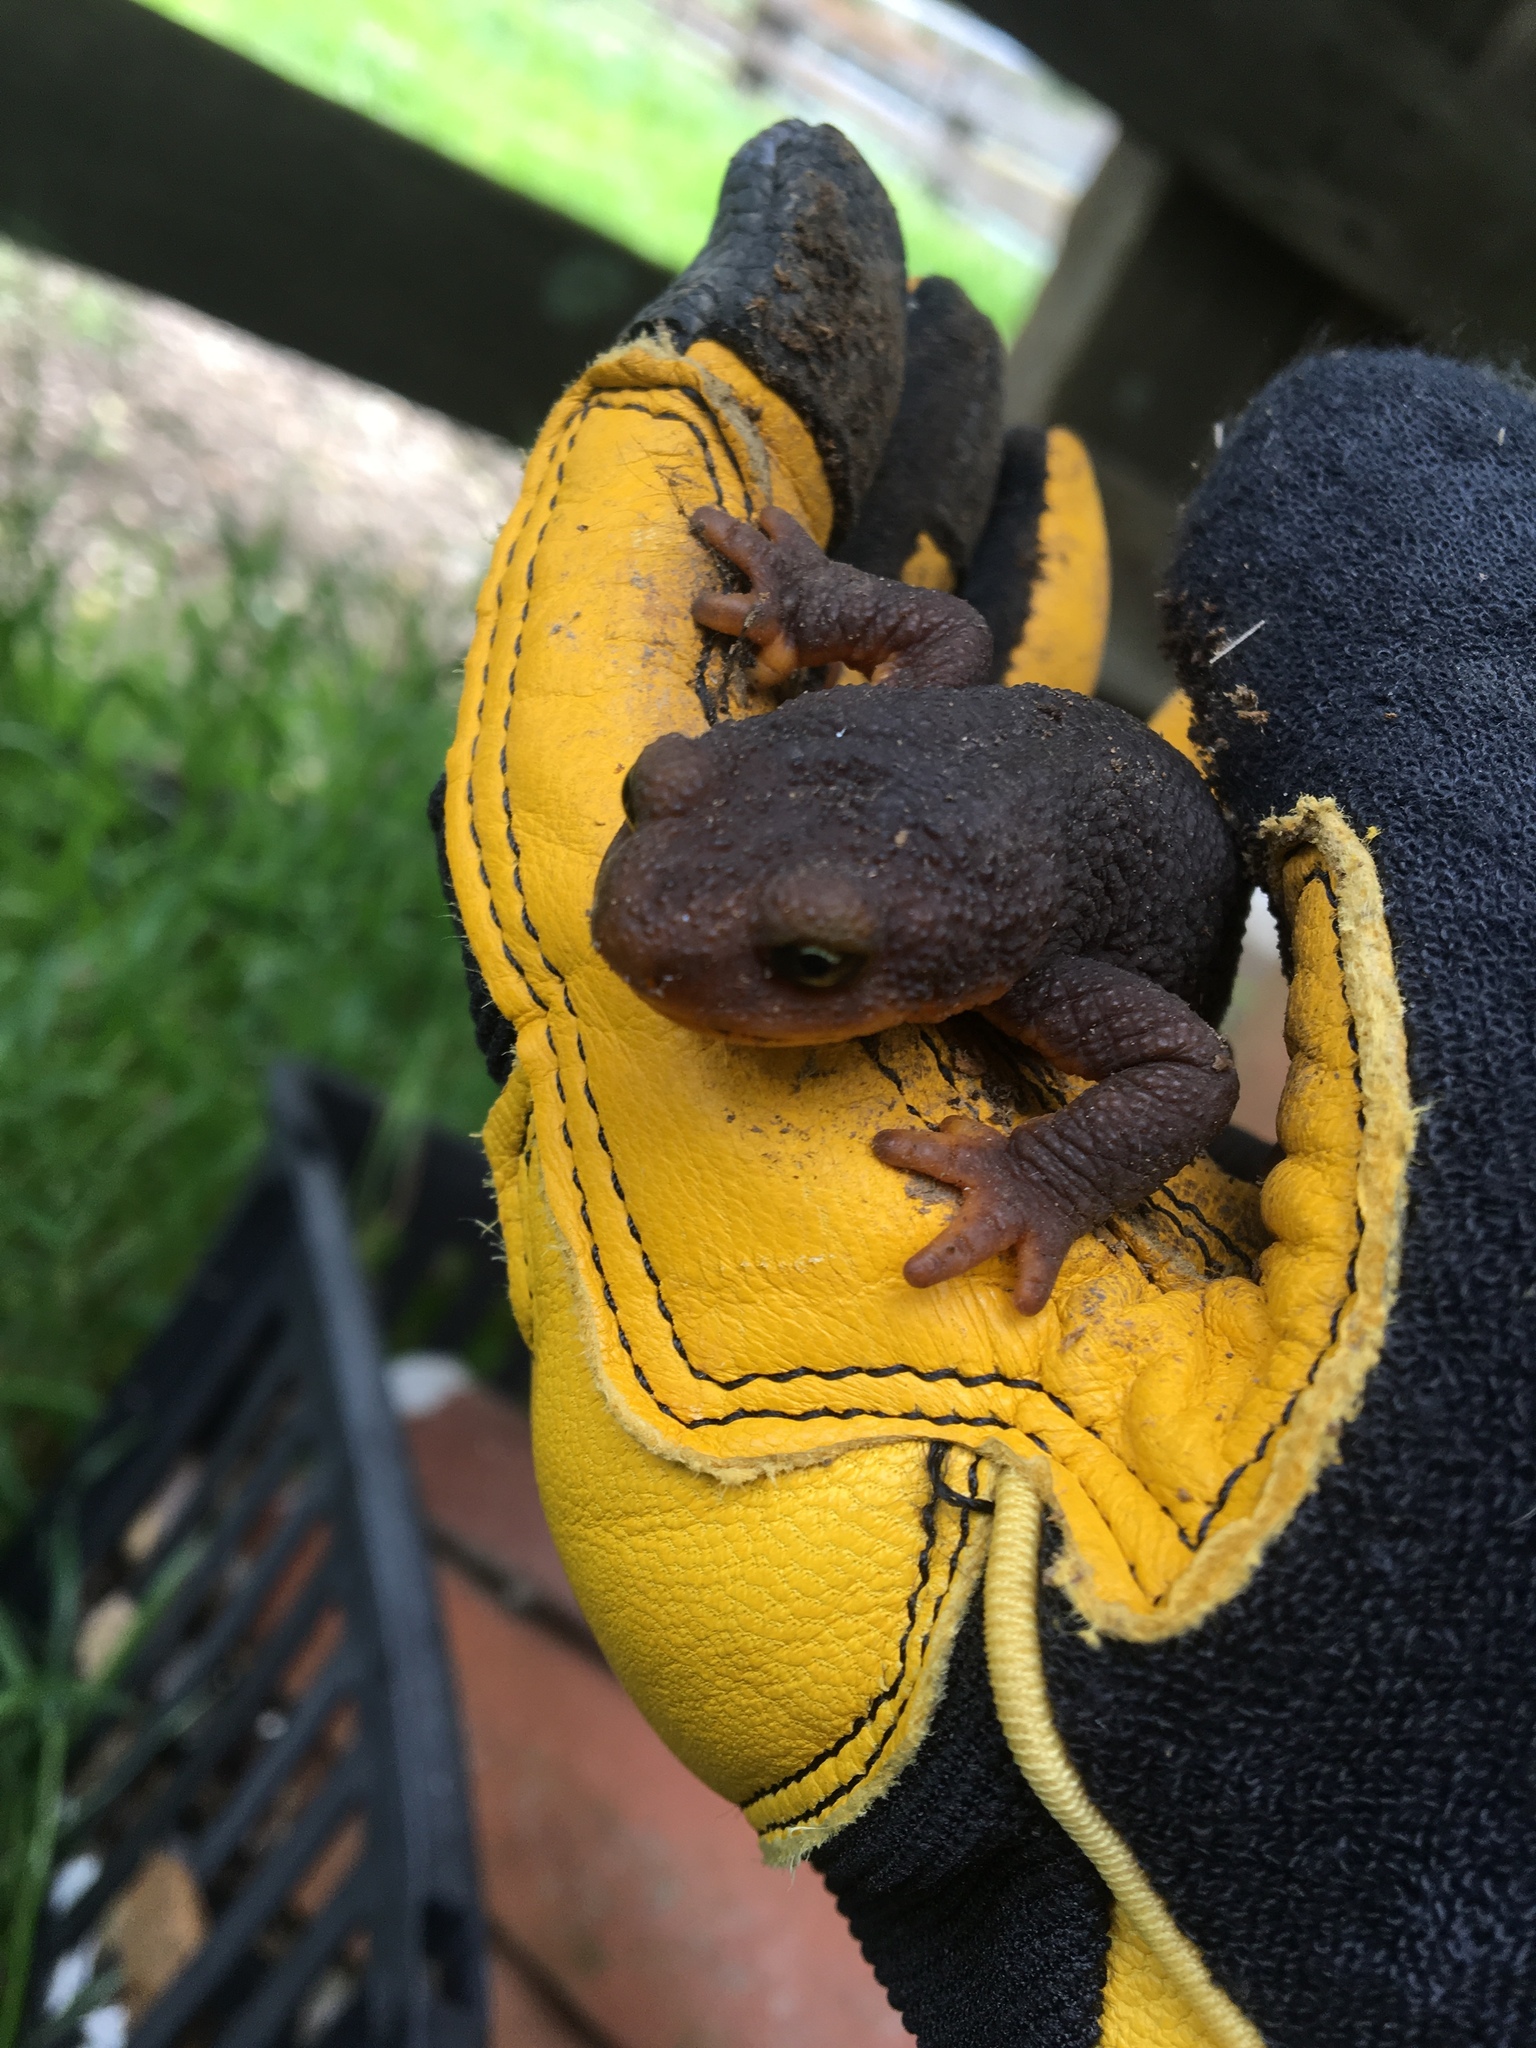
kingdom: Animalia
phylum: Chordata
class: Amphibia
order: Caudata
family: Salamandridae
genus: Taricha
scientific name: Taricha torosa
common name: California newt
